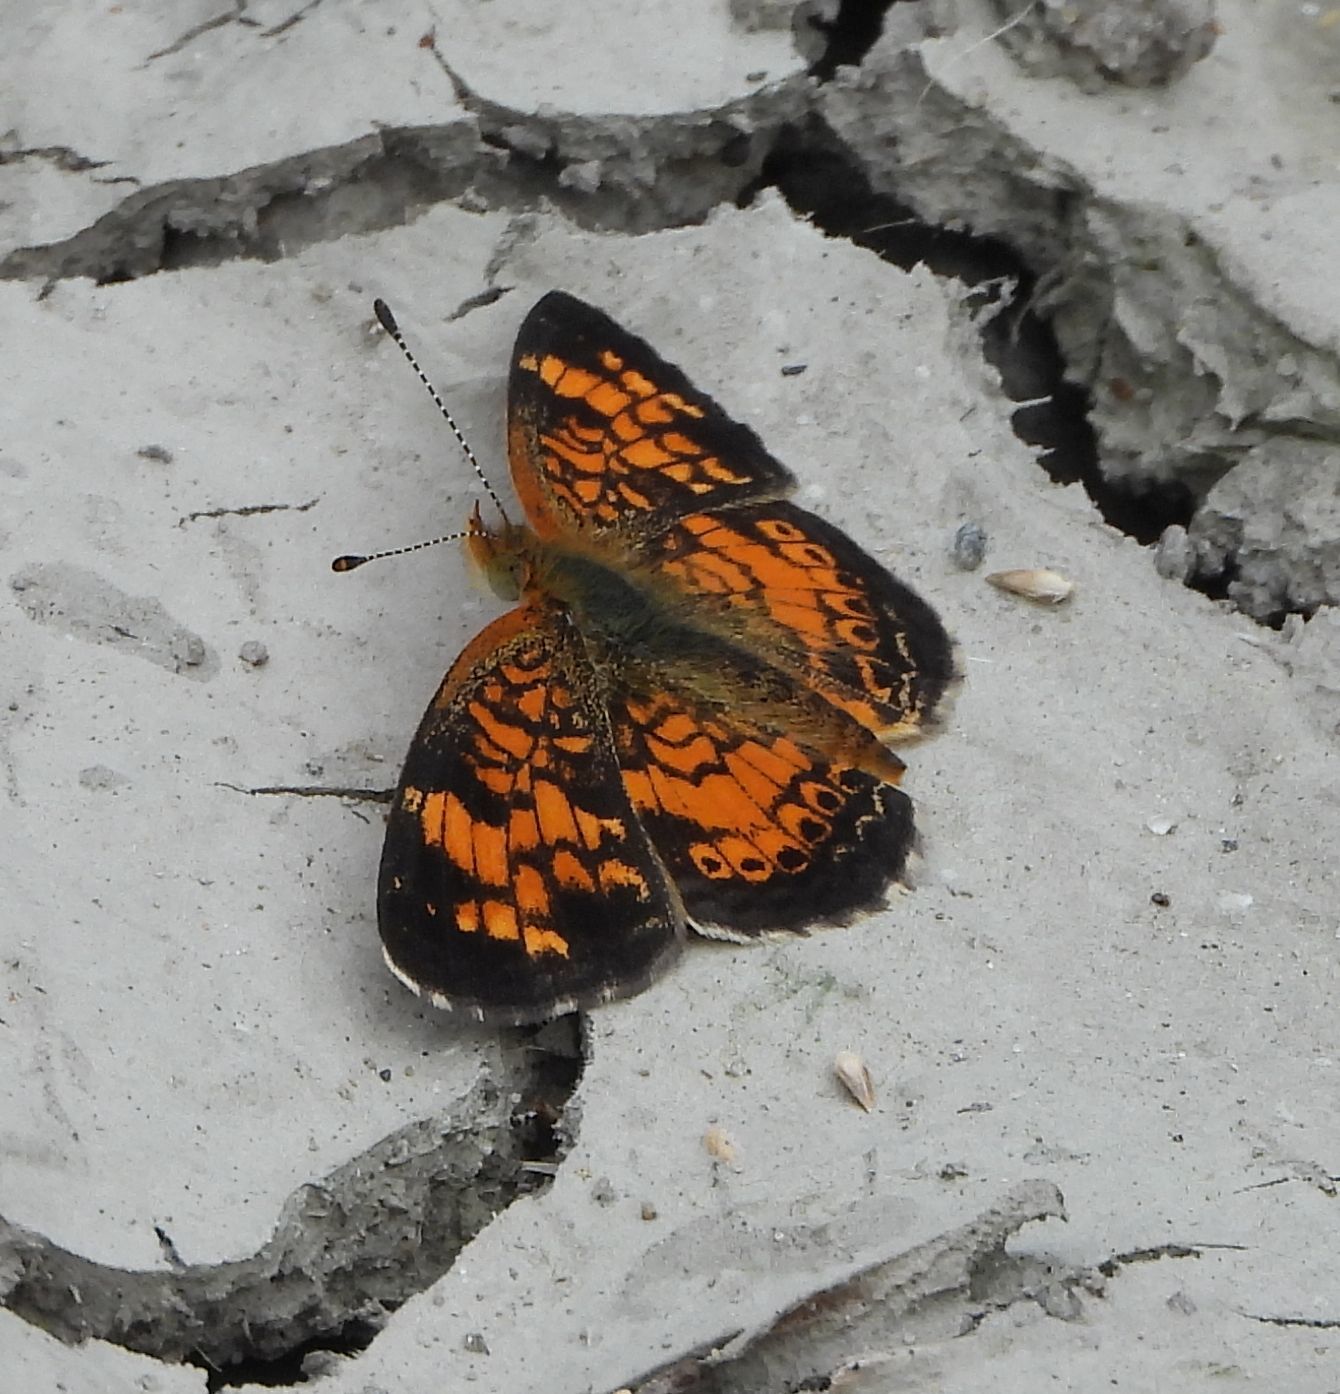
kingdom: Animalia
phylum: Arthropoda
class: Insecta
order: Lepidoptera
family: Nymphalidae
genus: Phyciodes
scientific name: Phyciodes tharos
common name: Pearl crescent
